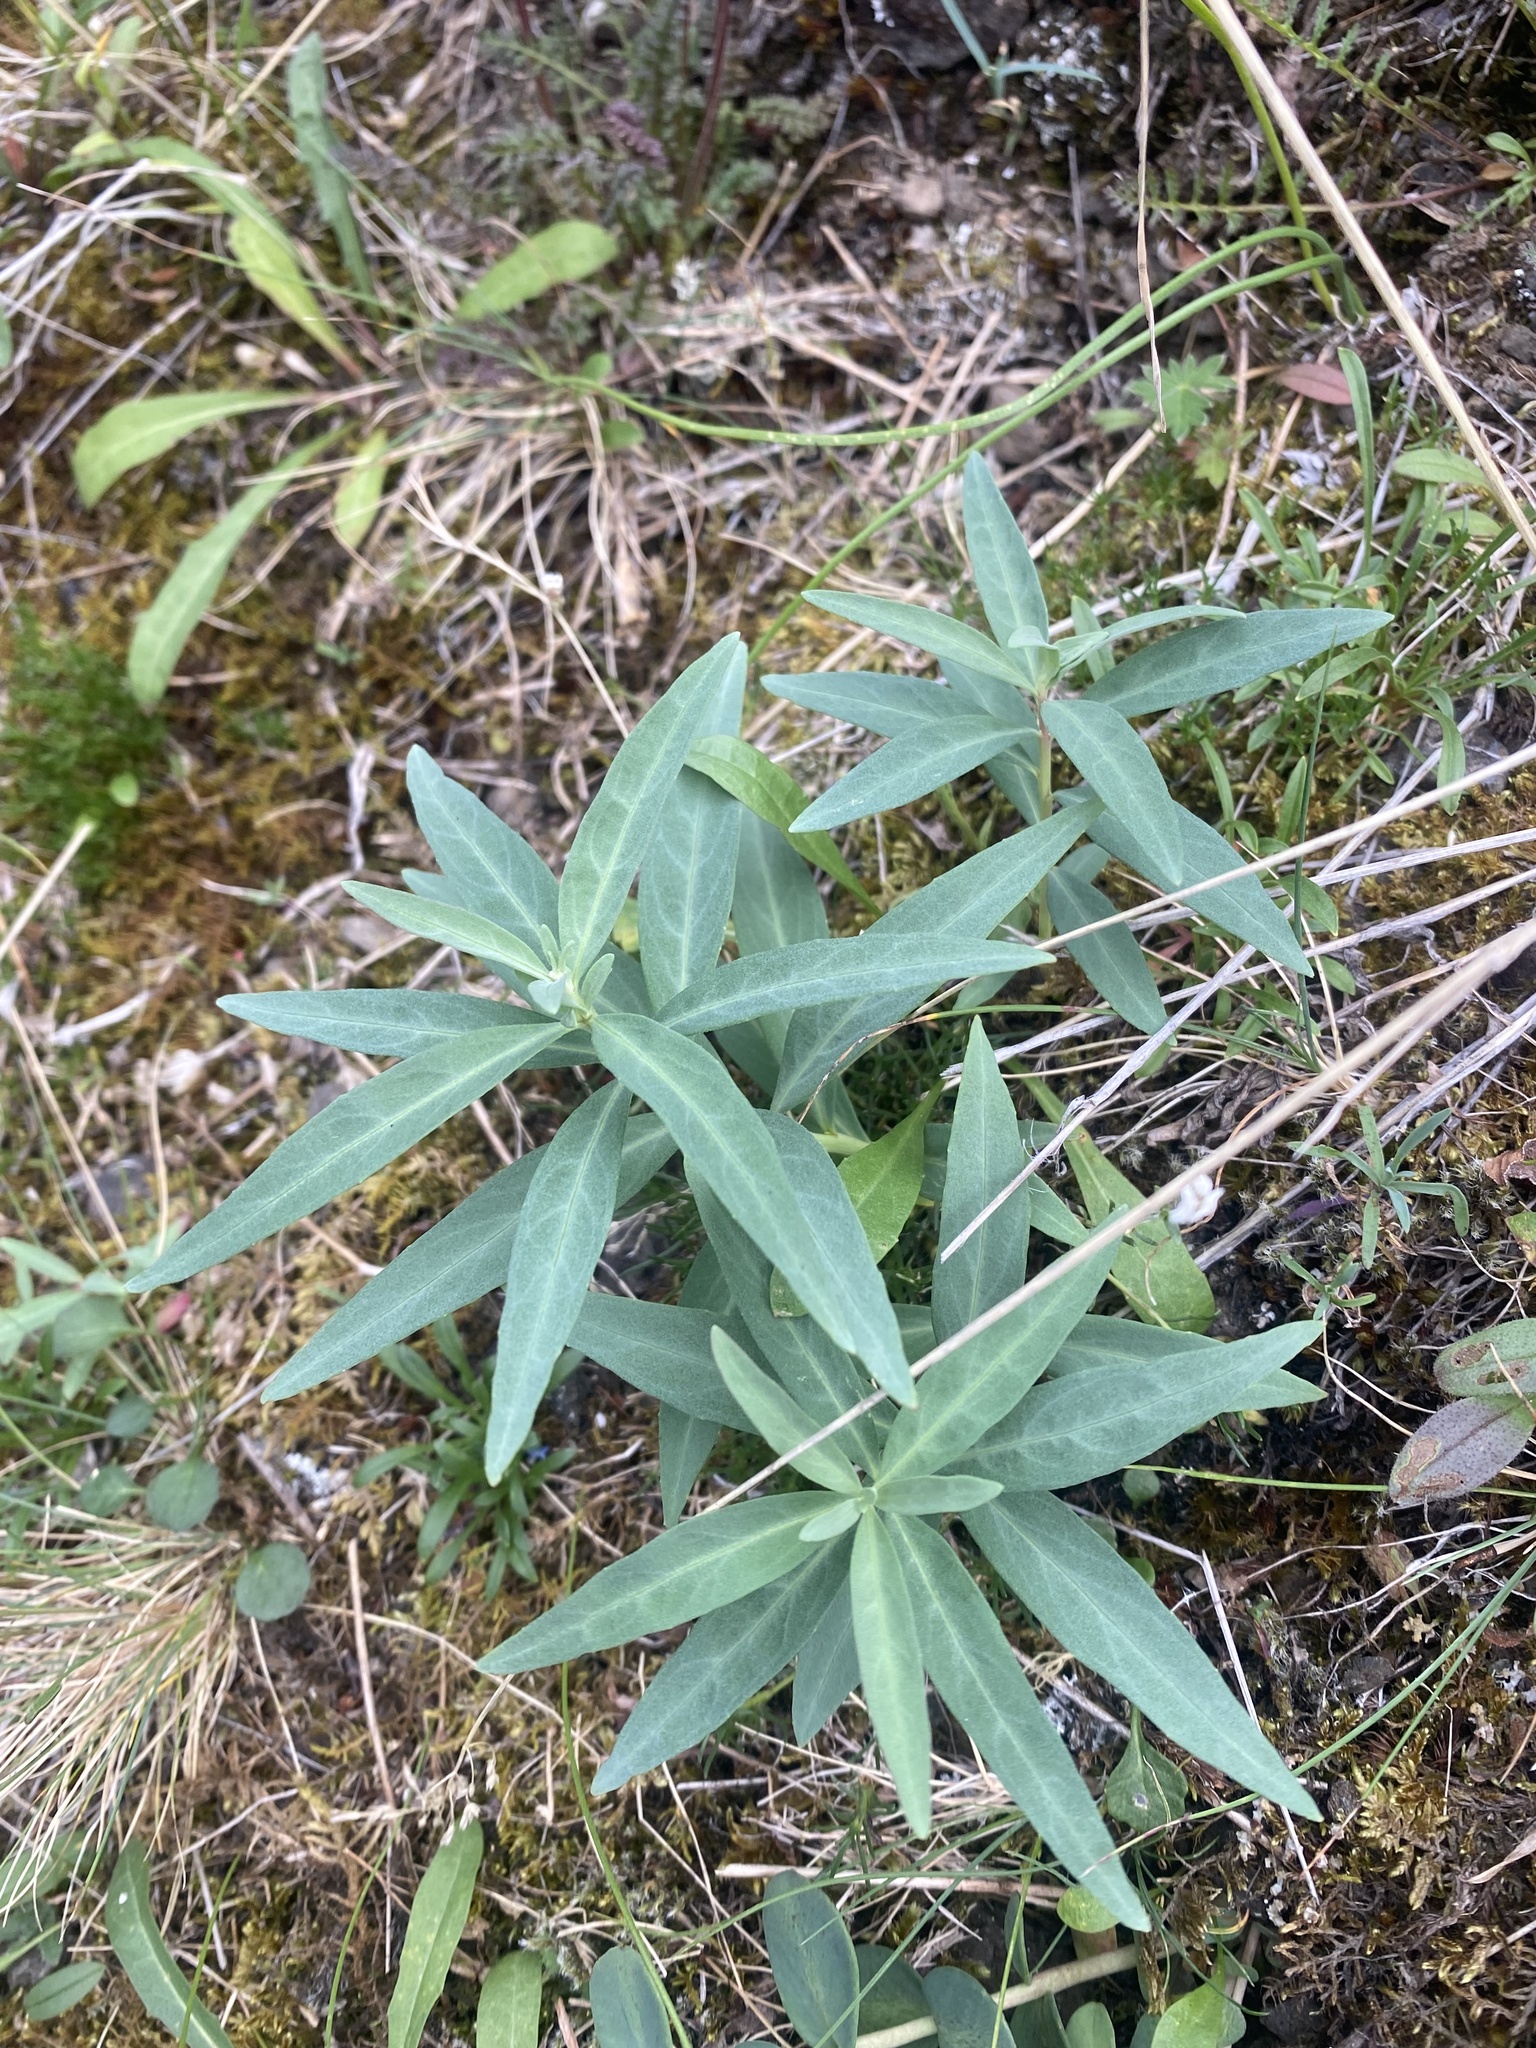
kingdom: Plantae
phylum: Tracheophyta
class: Magnoliopsida
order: Myrtales
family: Onagraceae
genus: Chamaenerion
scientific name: Chamaenerion latifolium
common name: Dwarf fireweed
